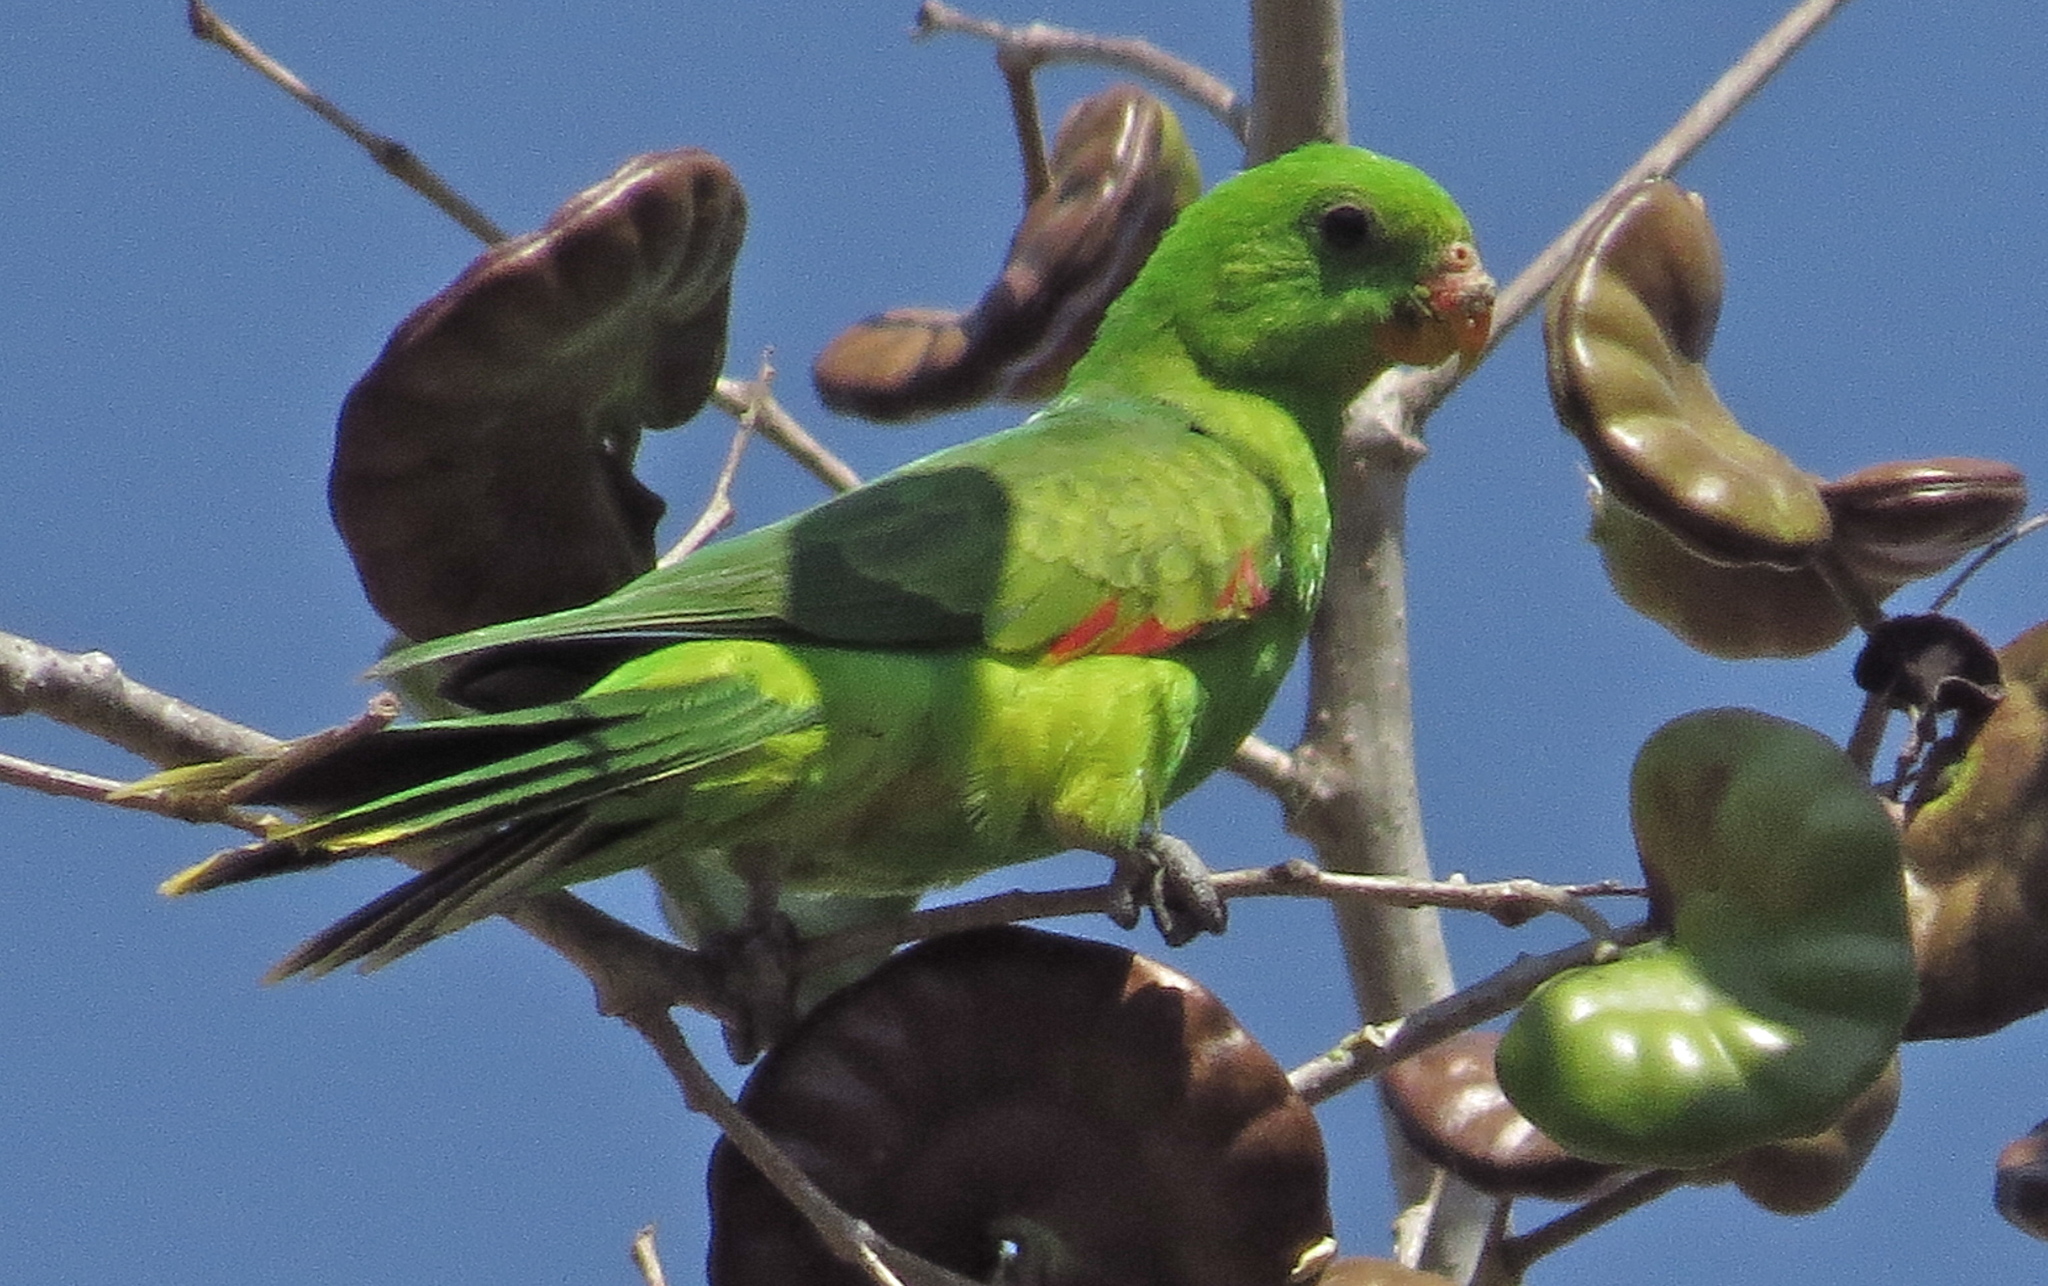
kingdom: Animalia
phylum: Chordata
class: Aves
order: Psittaciformes
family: Psittacidae
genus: Aprosmictus
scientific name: Aprosmictus jonquillaceus
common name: Jonquil parrot
